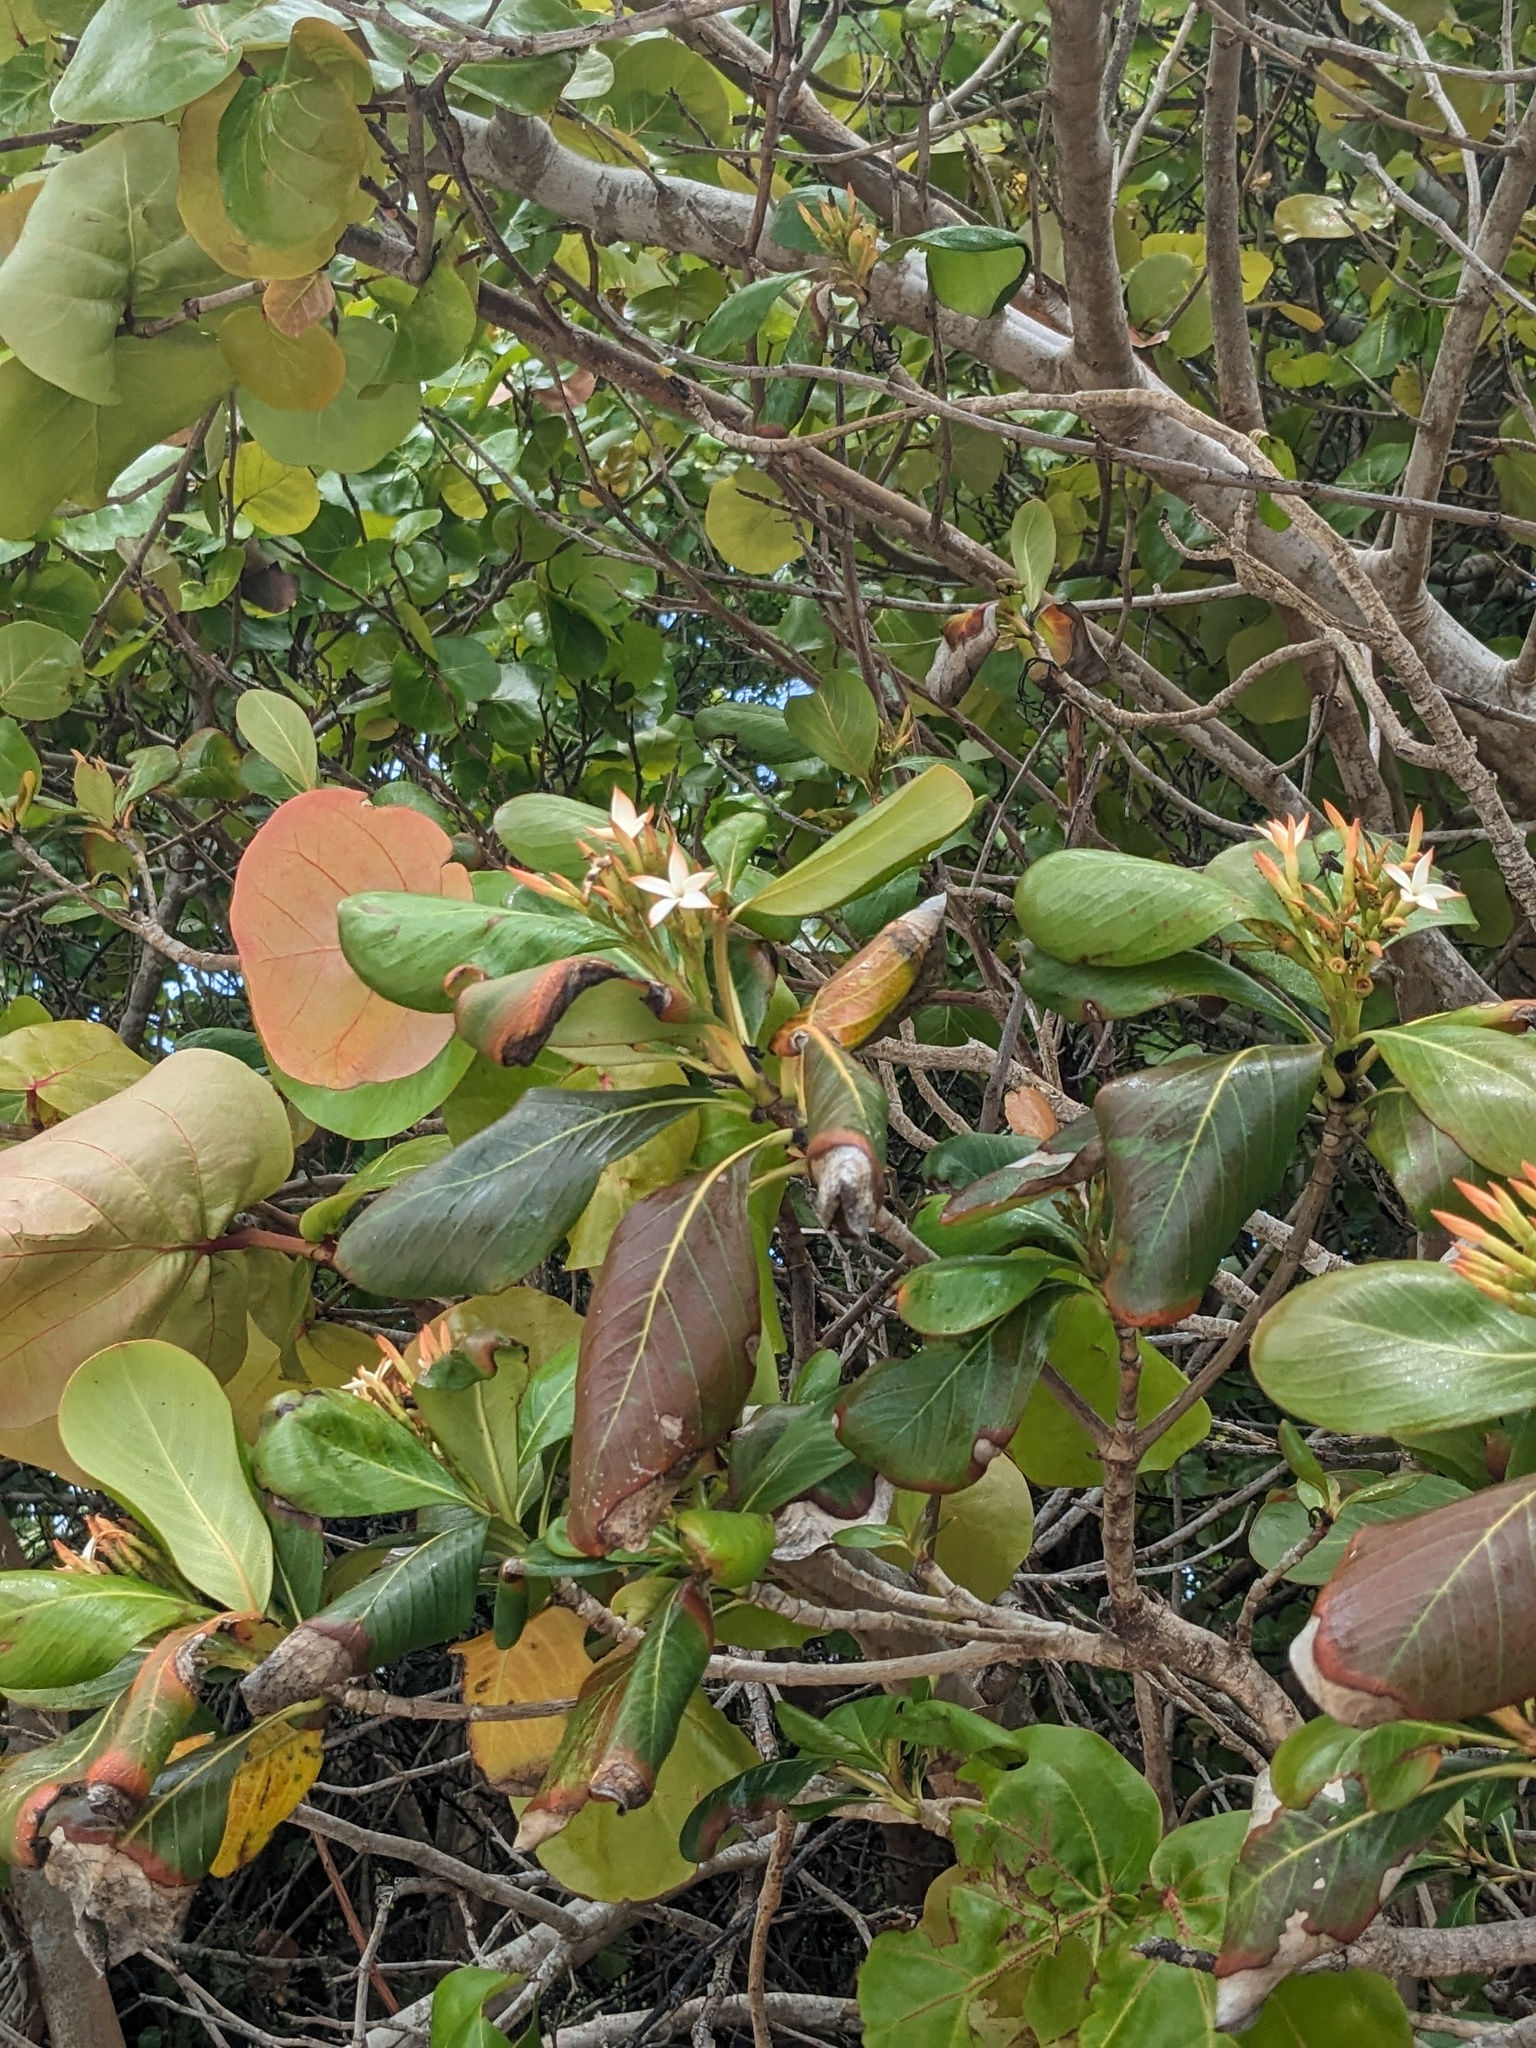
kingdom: Plantae
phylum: Tracheophyta
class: Magnoliopsida
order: Gentianales
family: Rubiaceae
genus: Casasia
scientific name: Casasia clusiifolia
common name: Seven-year apple
